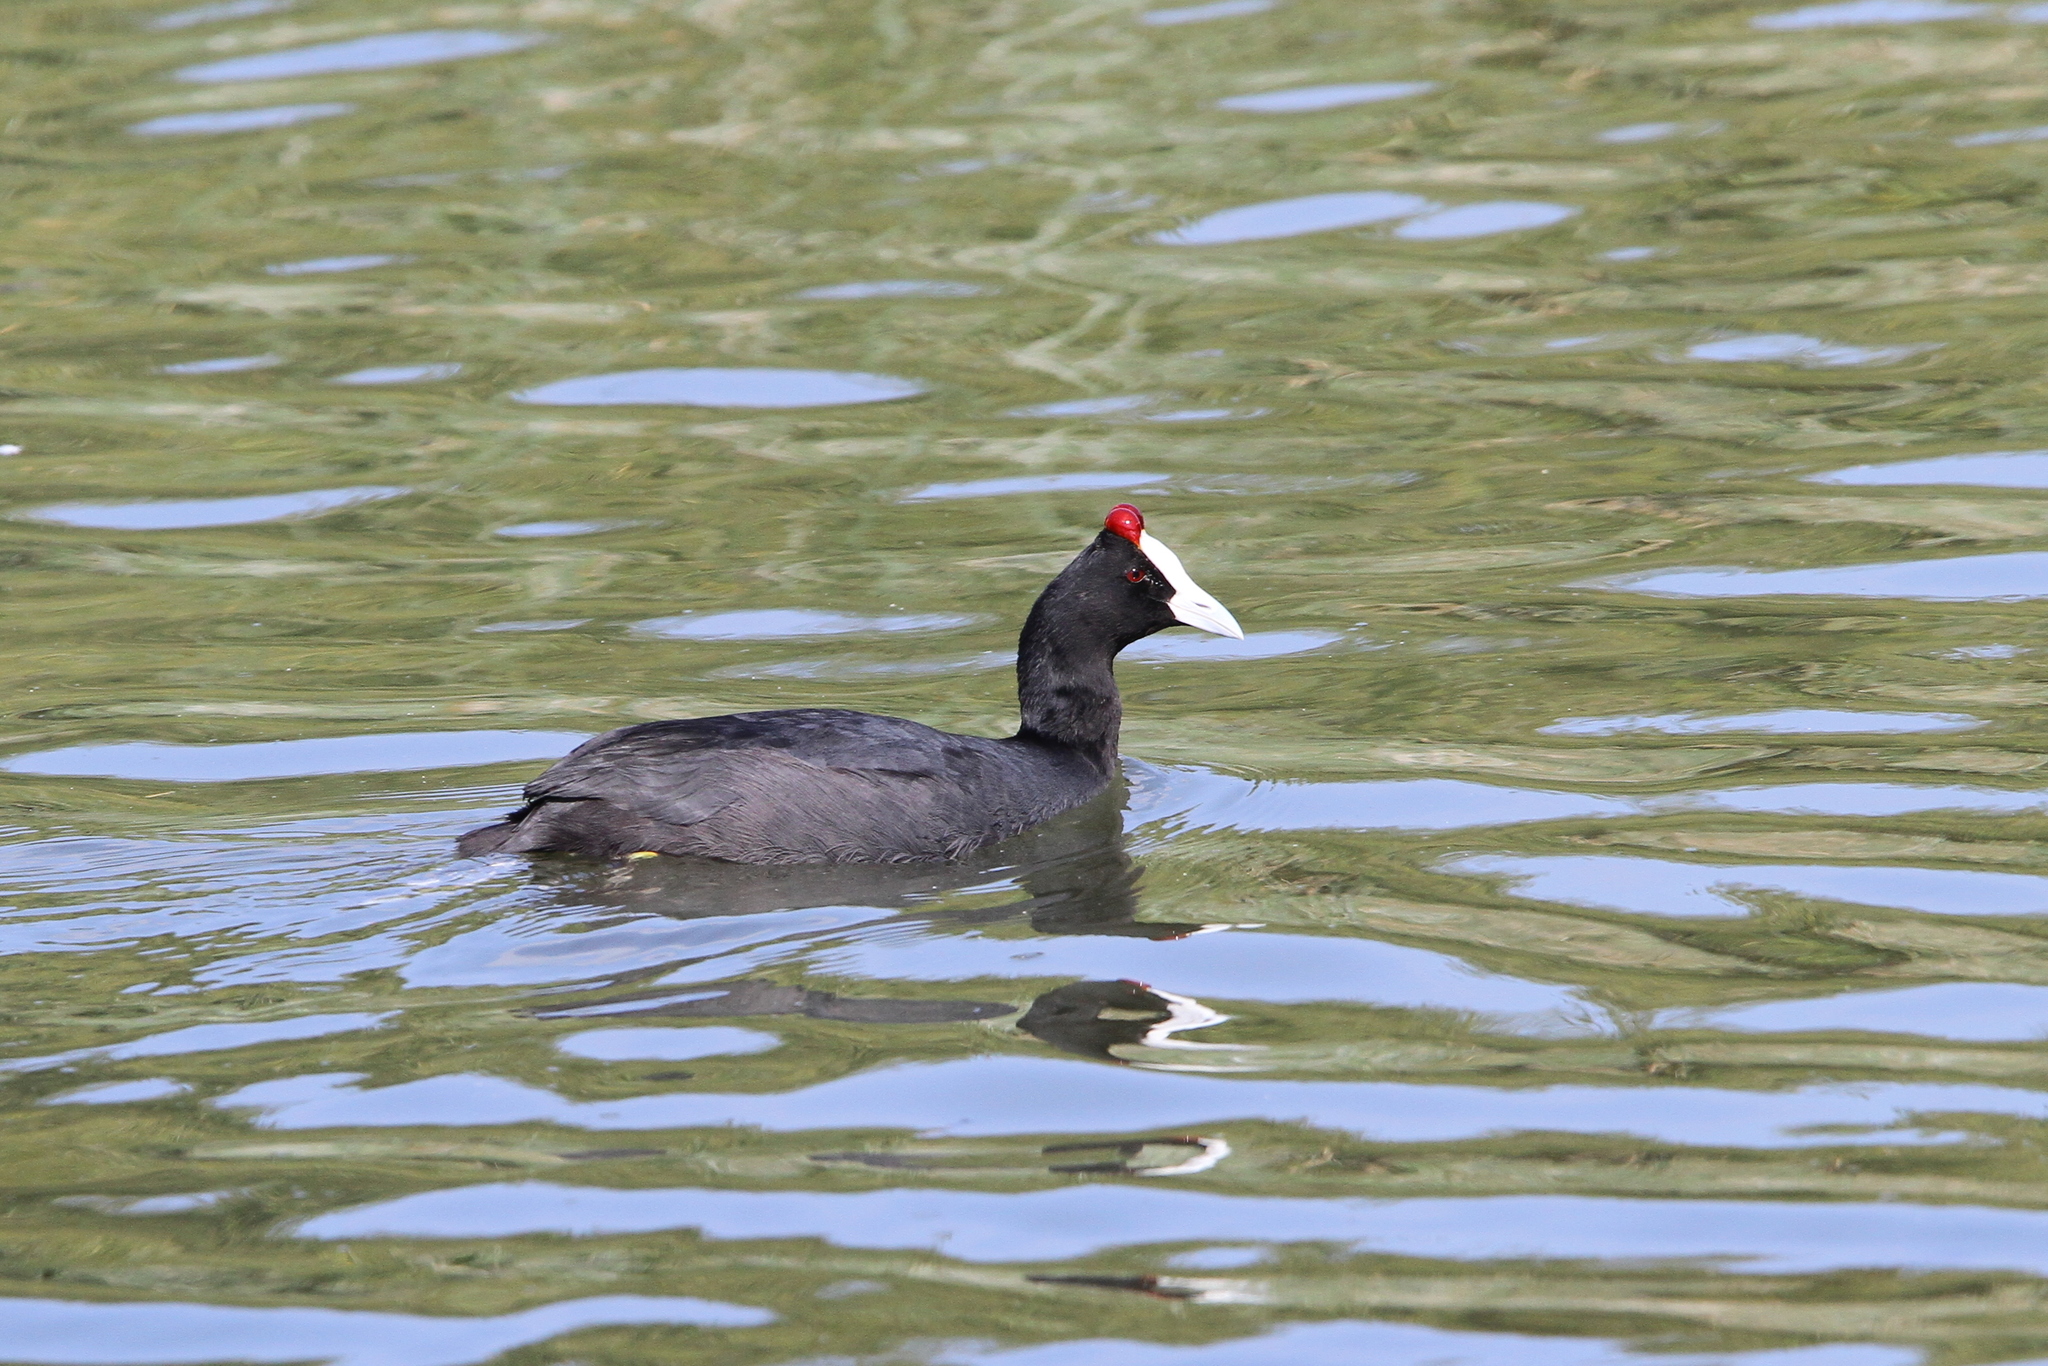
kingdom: Animalia
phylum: Chordata
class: Aves
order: Gruiformes
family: Rallidae
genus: Fulica
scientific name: Fulica cristata
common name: Red-knobbed coot
